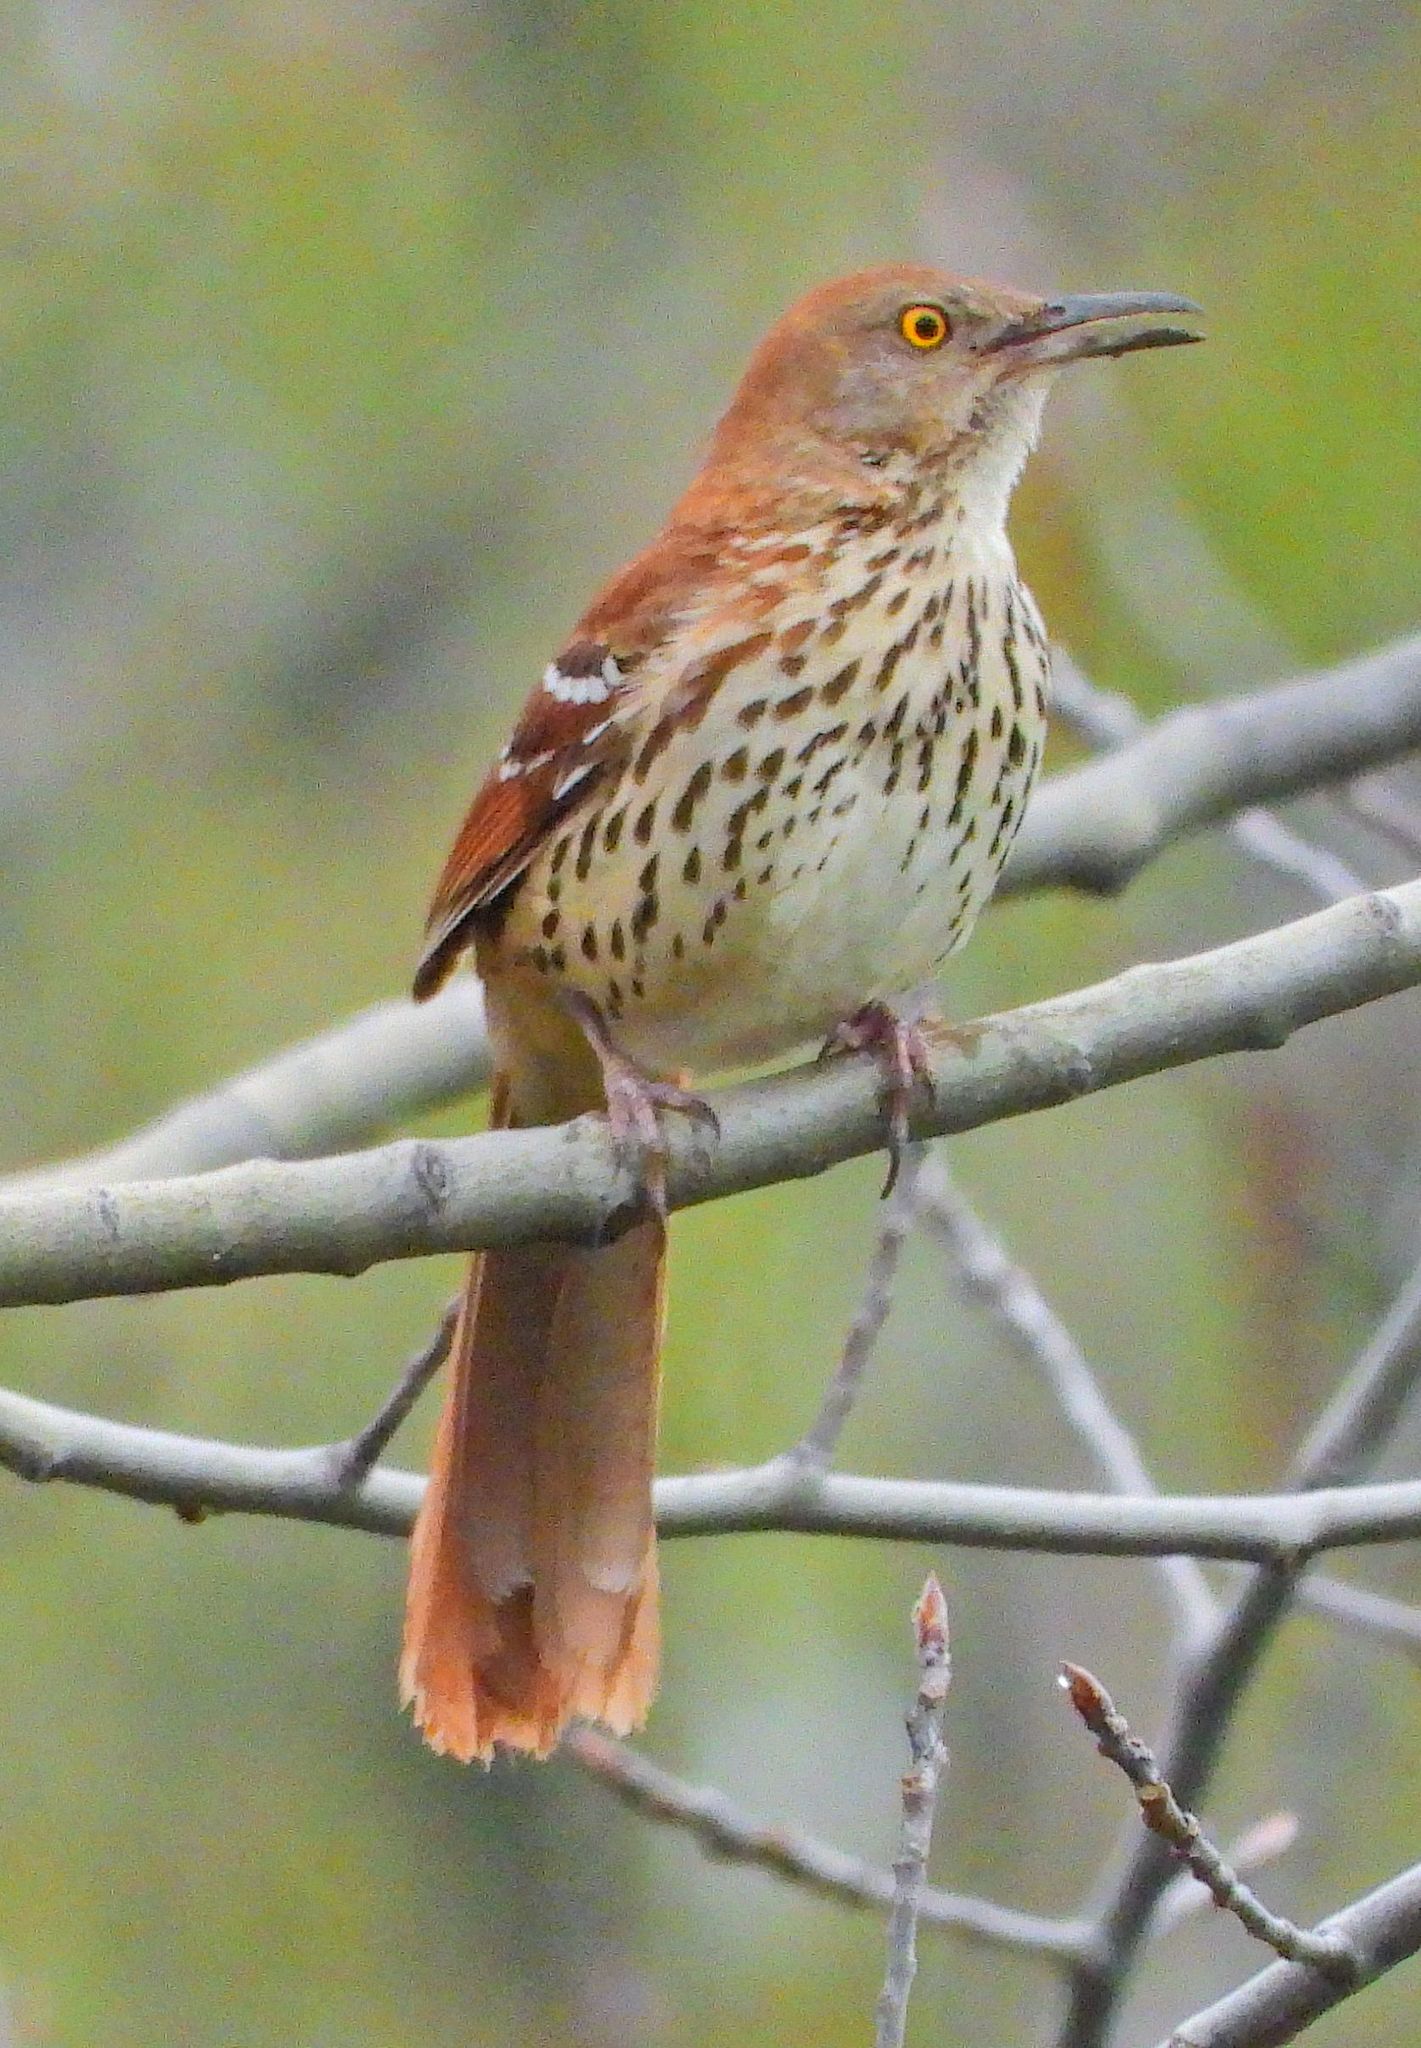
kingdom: Animalia
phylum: Chordata
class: Aves
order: Passeriformes
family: Mimidae
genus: Toxostoma
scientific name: Toxostoma rufum
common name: Brown thrasher
